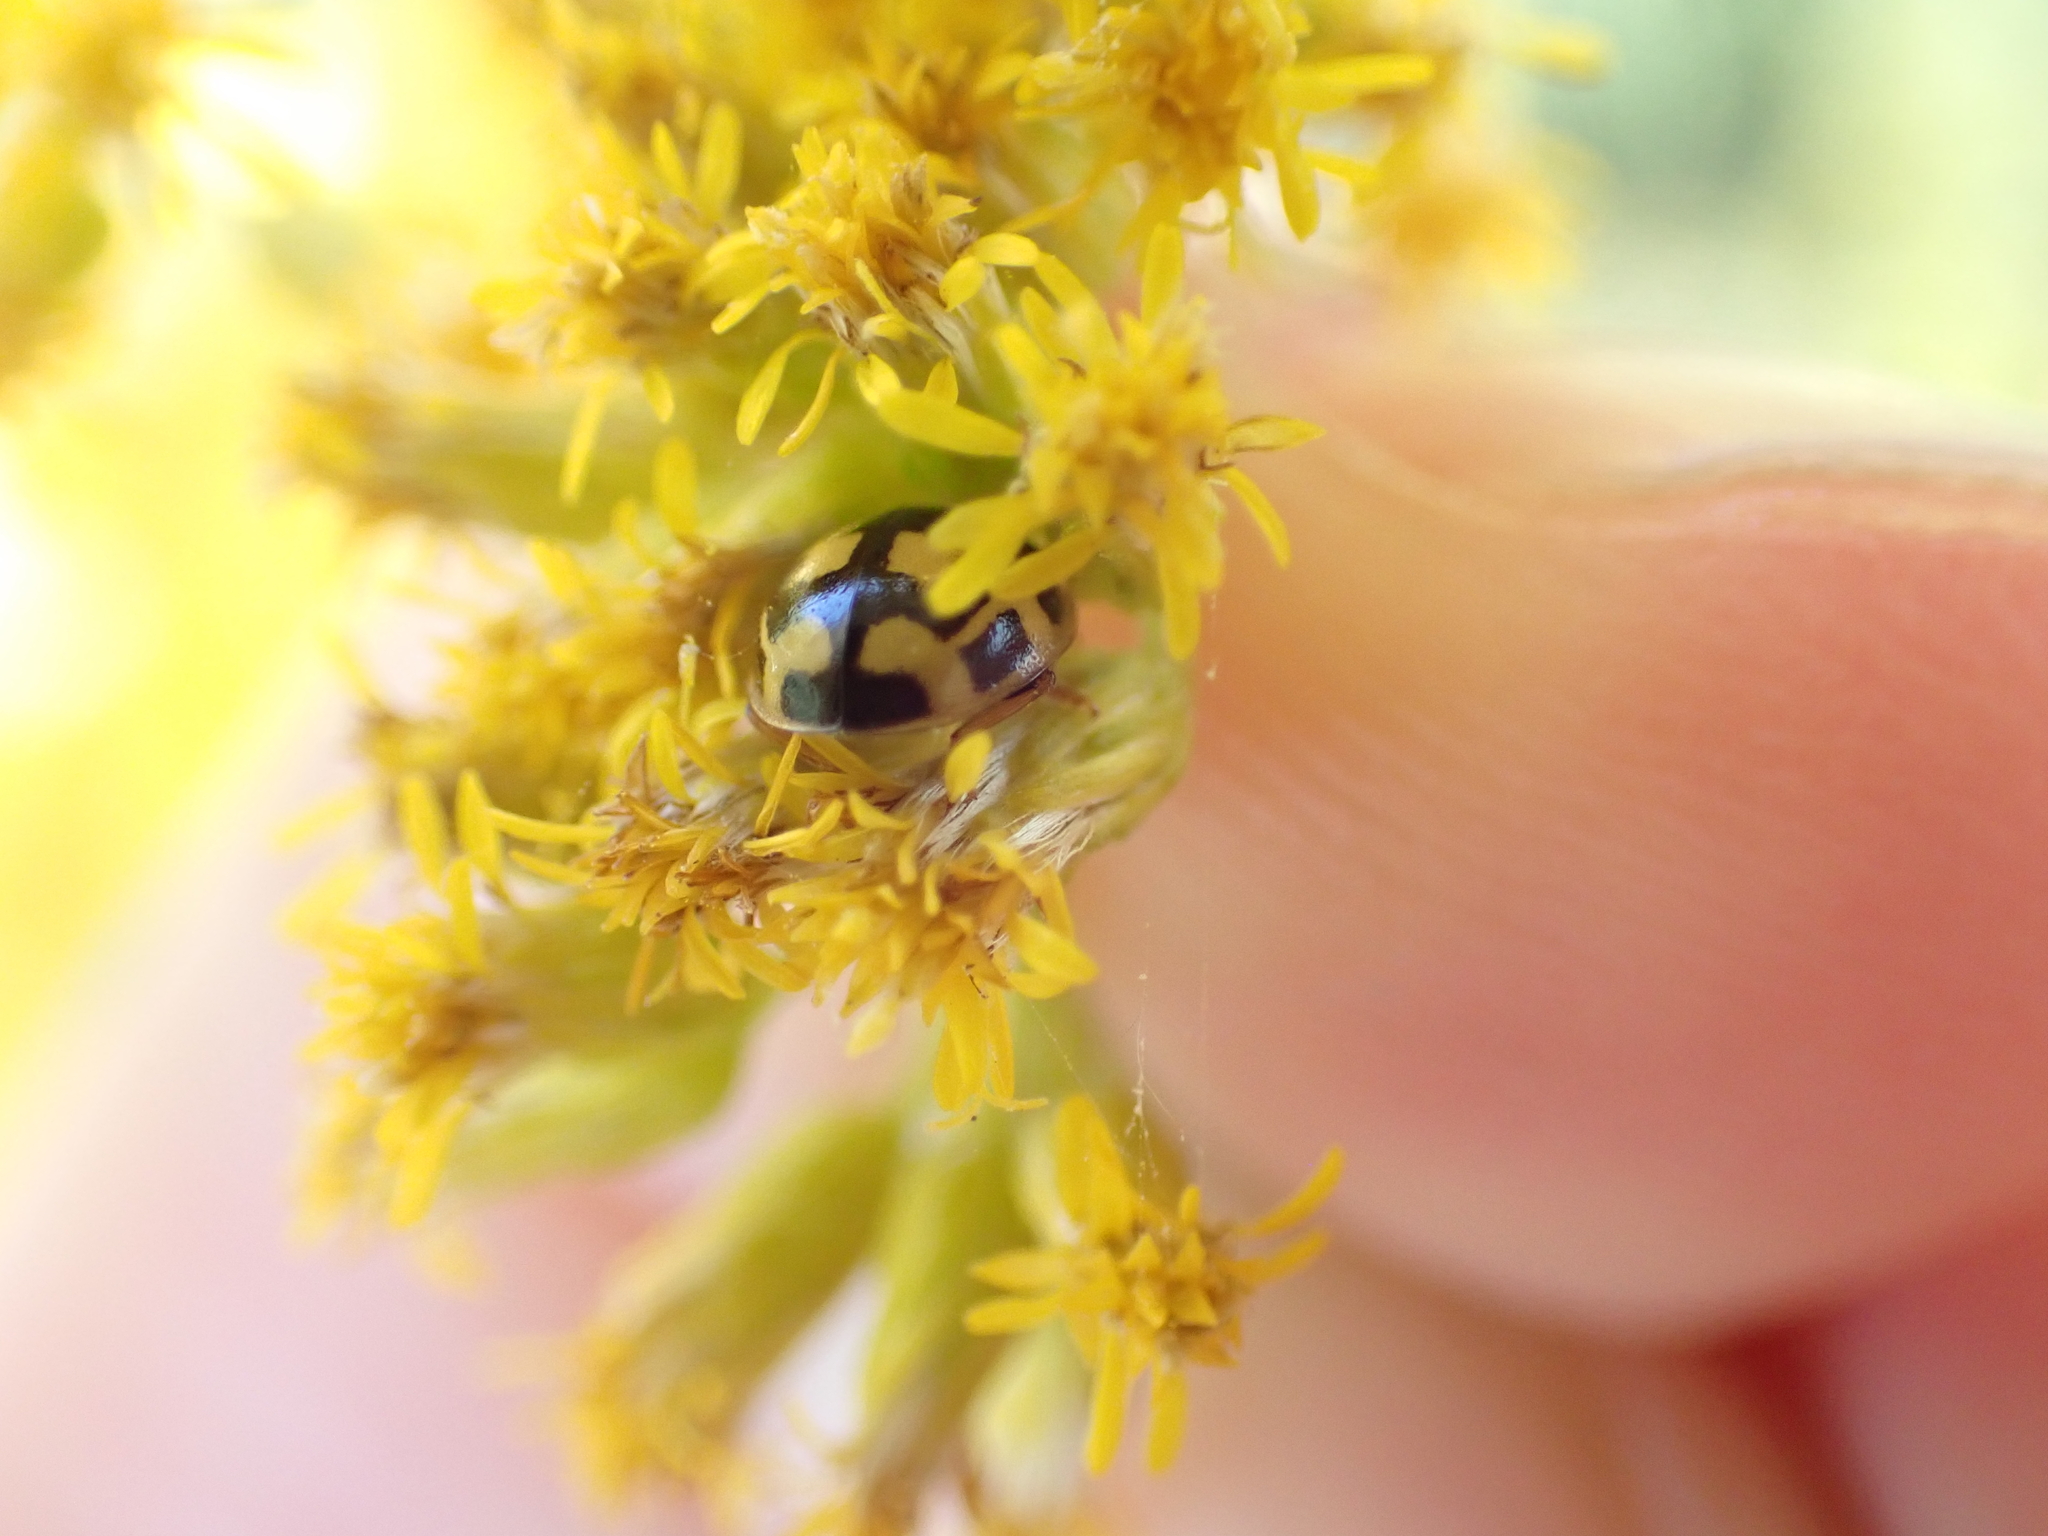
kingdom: Animalia
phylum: Arthropoda
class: Insecta
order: Coleoptera
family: Coccinellidae
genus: Propylaea
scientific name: Propylaea quatuordecimpunctata
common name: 14-spotted ladybird beetle
